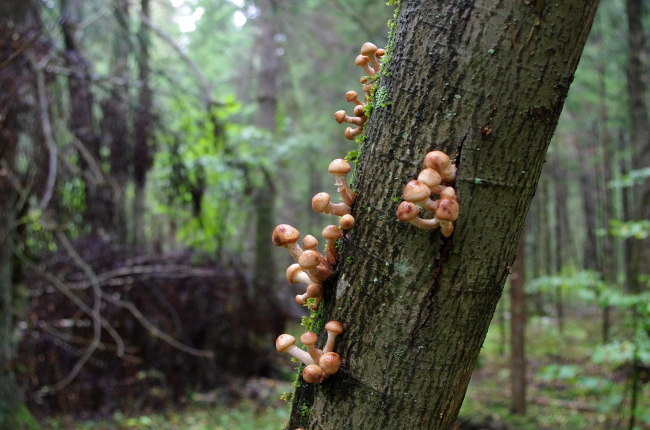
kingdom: Fungi
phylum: Basidiomycota
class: Agaricomycetes
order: Agaricales
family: Physalacriaceae
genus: Armillaria
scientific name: Armillaria borealis
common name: Northern honey fungus
